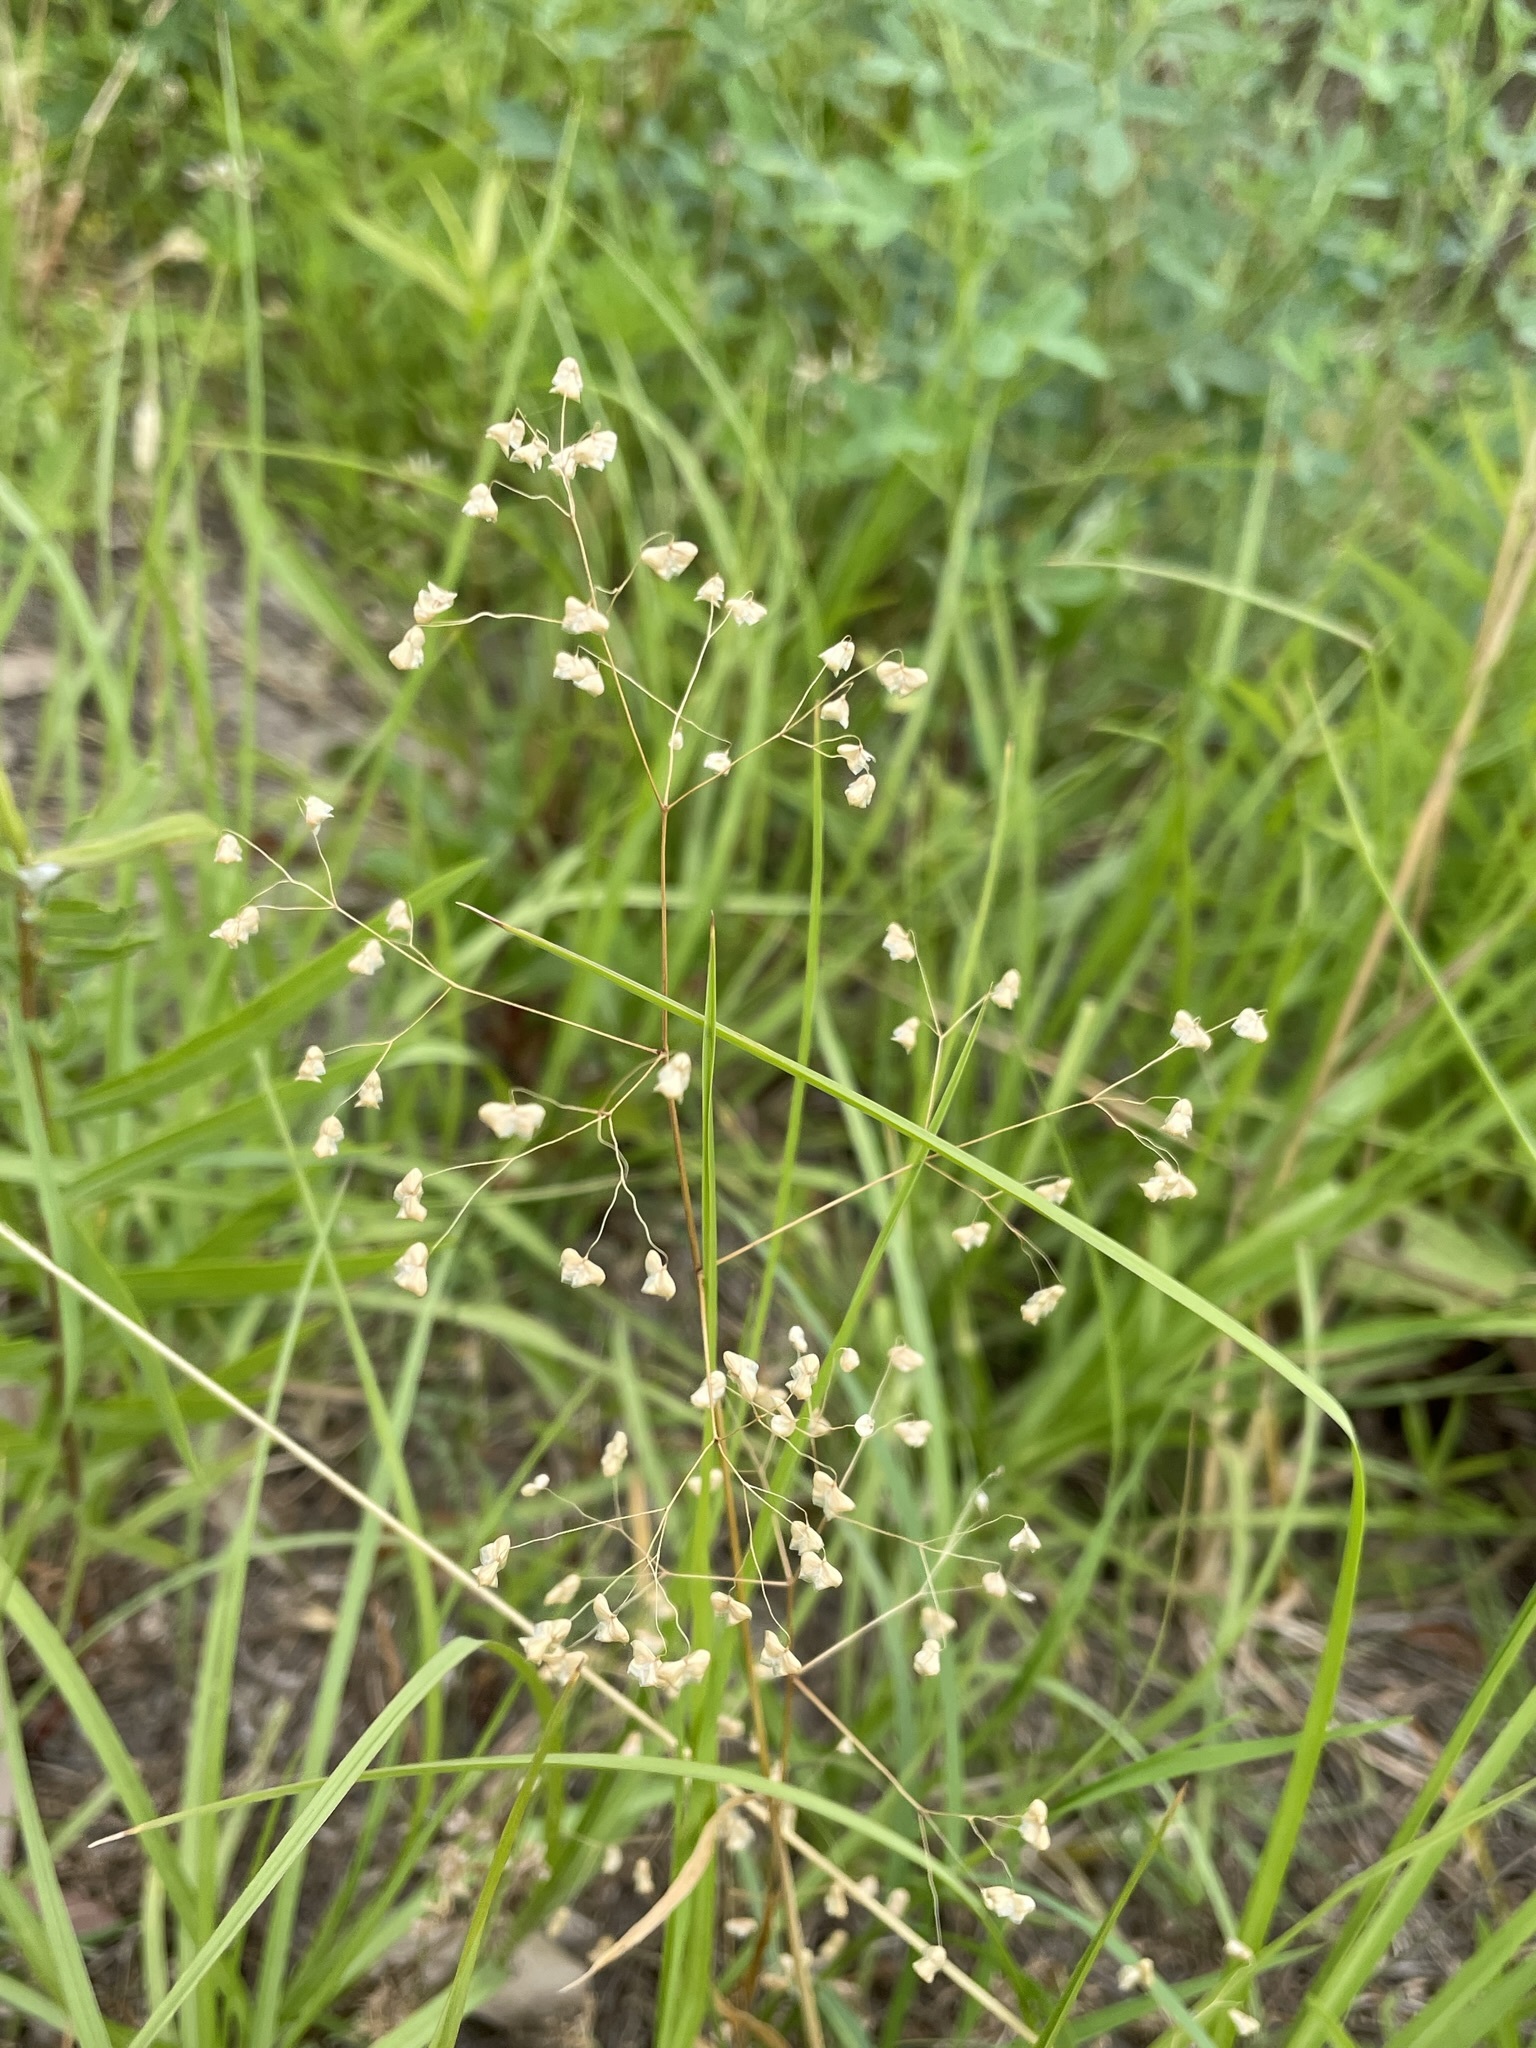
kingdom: Plantae
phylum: Tracheophyta
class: Liliopsida
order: Poales
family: Poaceae
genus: Briza
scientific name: Briza minor
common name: Lesser quaking-grass
